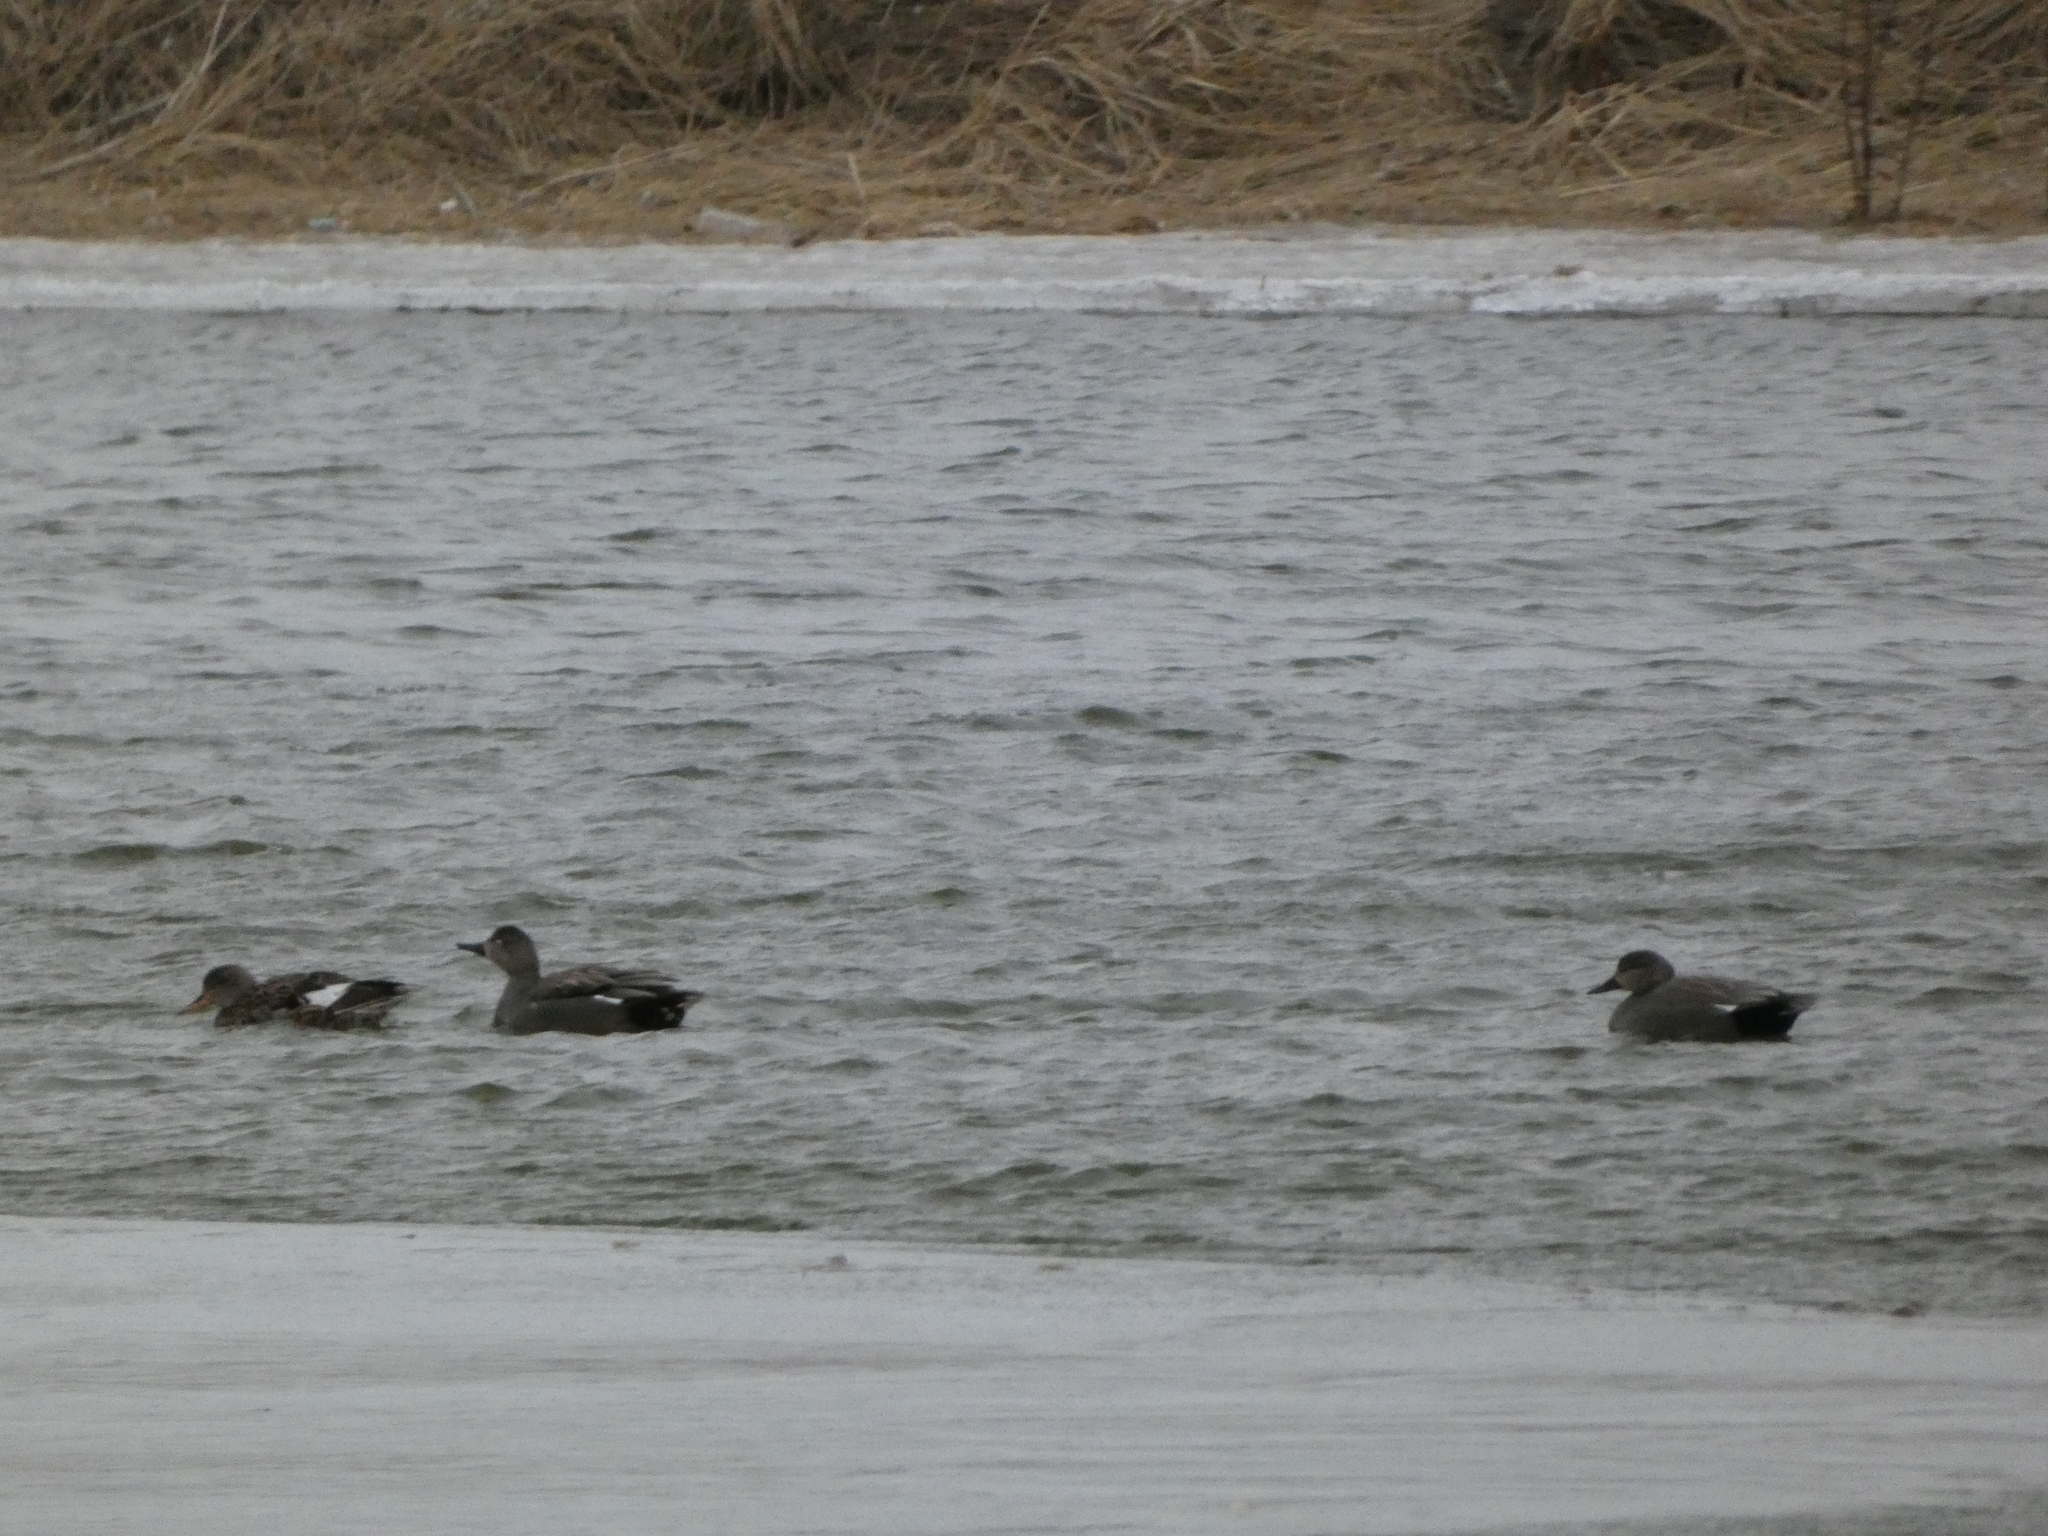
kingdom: Animalia
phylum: Chordata
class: Aves
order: Anseriformes
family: Anatidae
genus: Mareca
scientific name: Mareca strepera
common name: Gadwall
